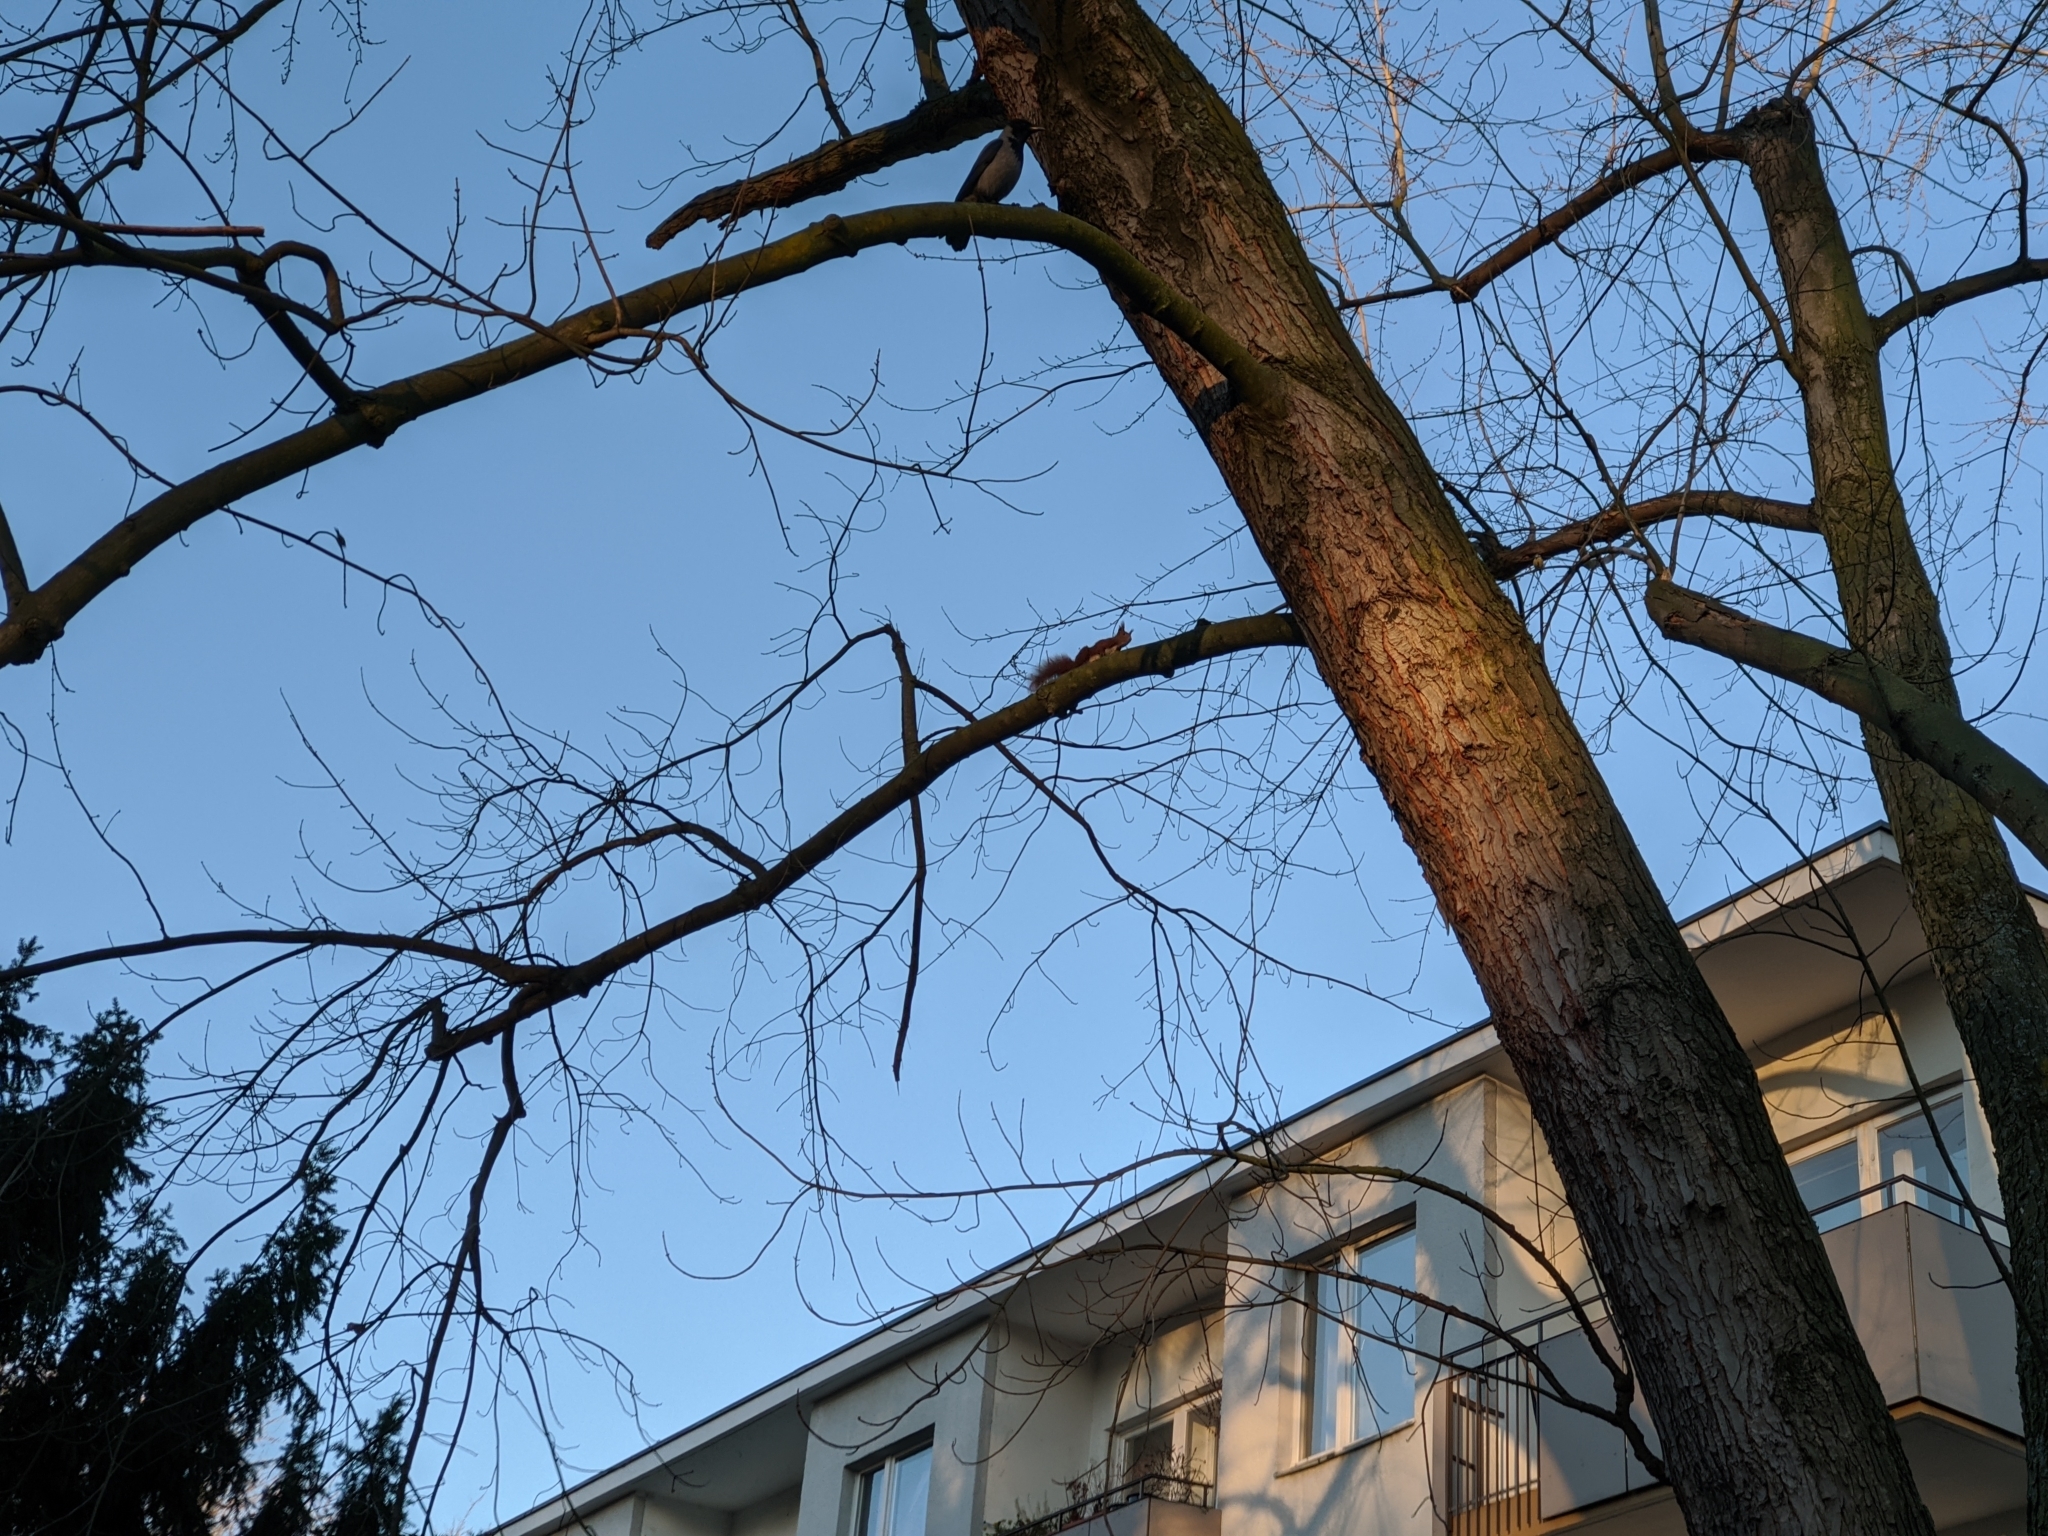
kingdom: Animalia
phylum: Chordata
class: Mammalia
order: Rodentia
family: Sciuridae
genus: Sciurus
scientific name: Sciurus vulgaris
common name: Eurasian red squirrel
